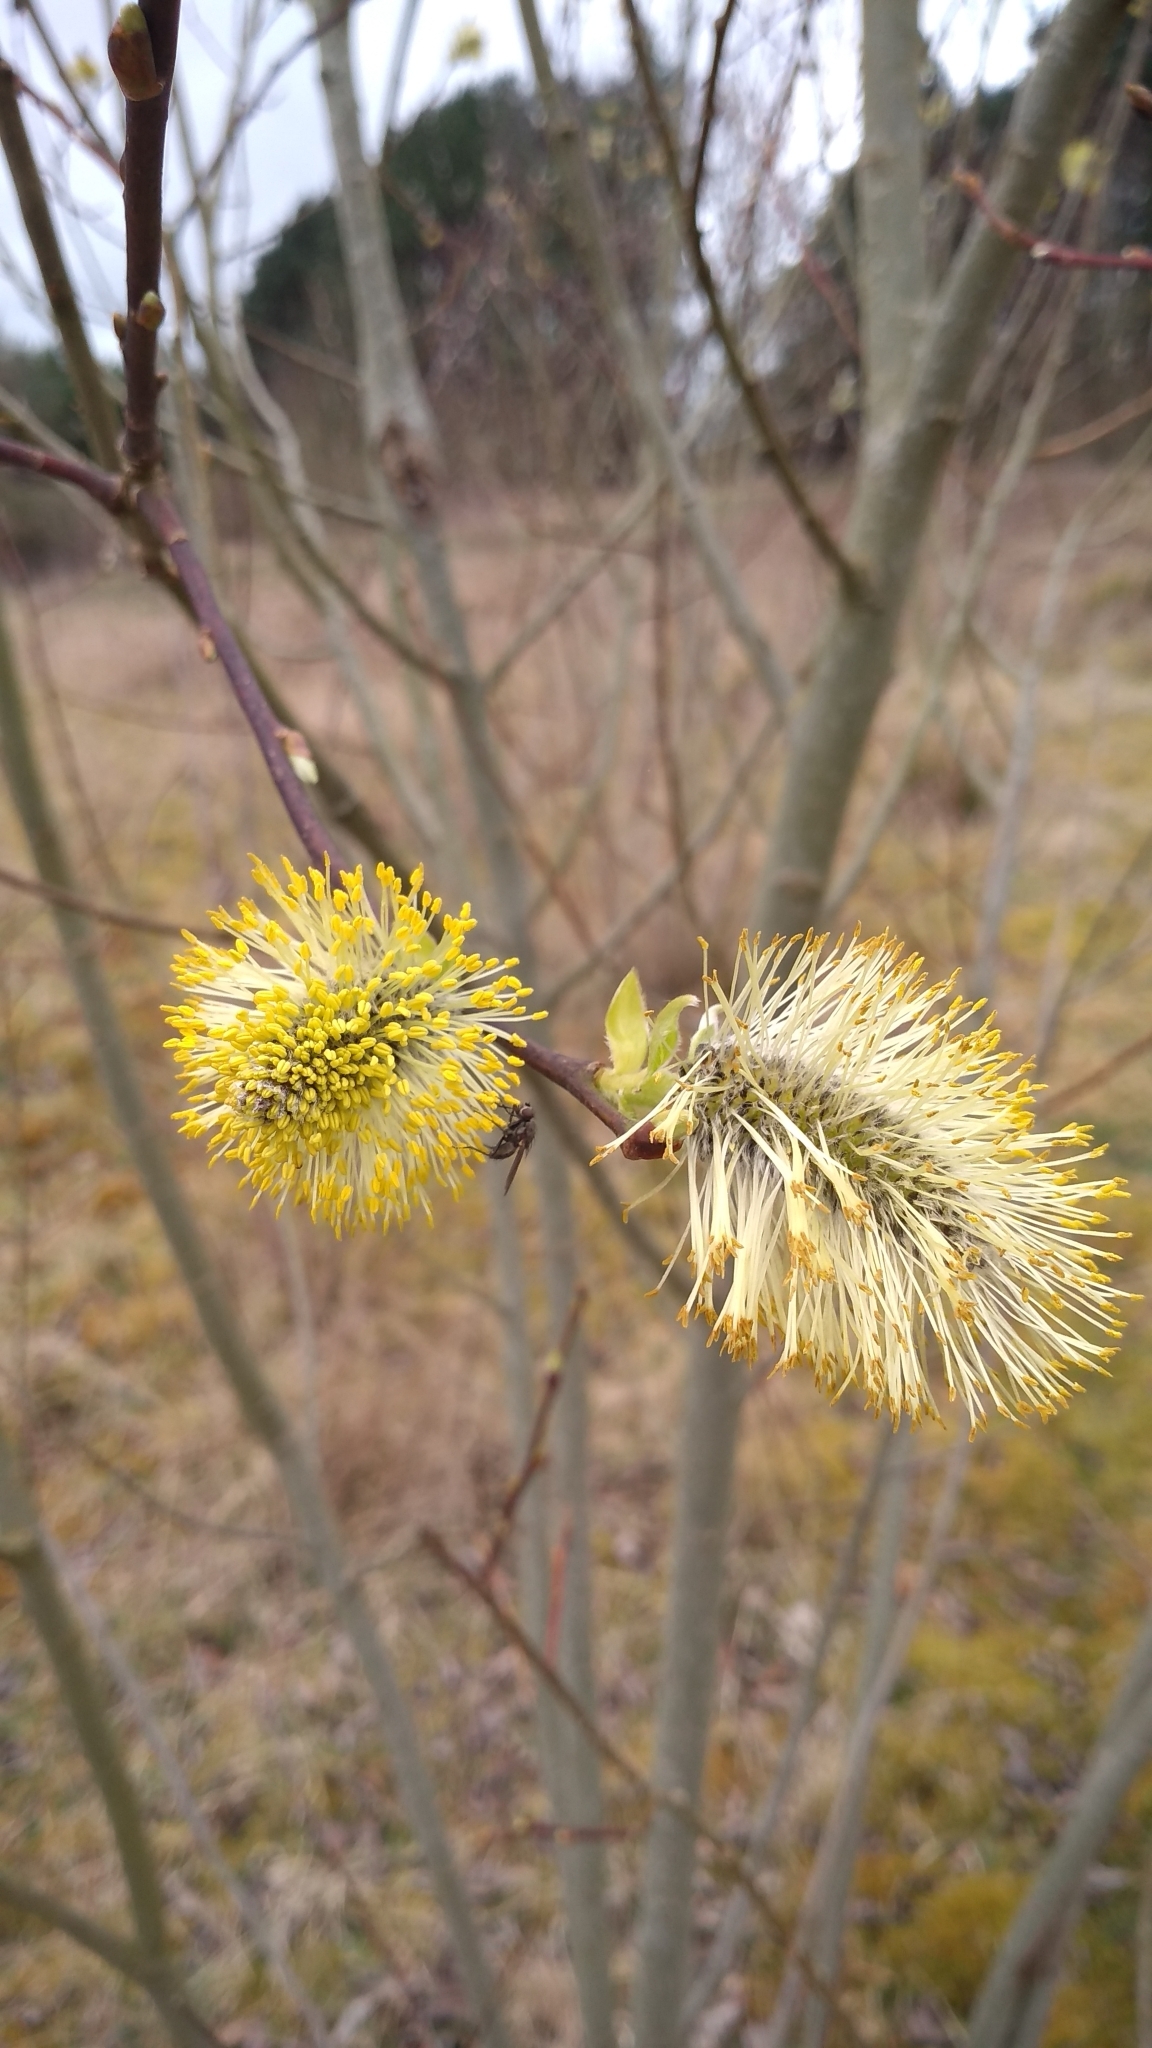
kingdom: Plantae
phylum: Tracheophyta
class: Magnoliopsida
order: Malpighiales
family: Salicaceae
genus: Salix
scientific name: Salix caprea
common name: Goat willow
